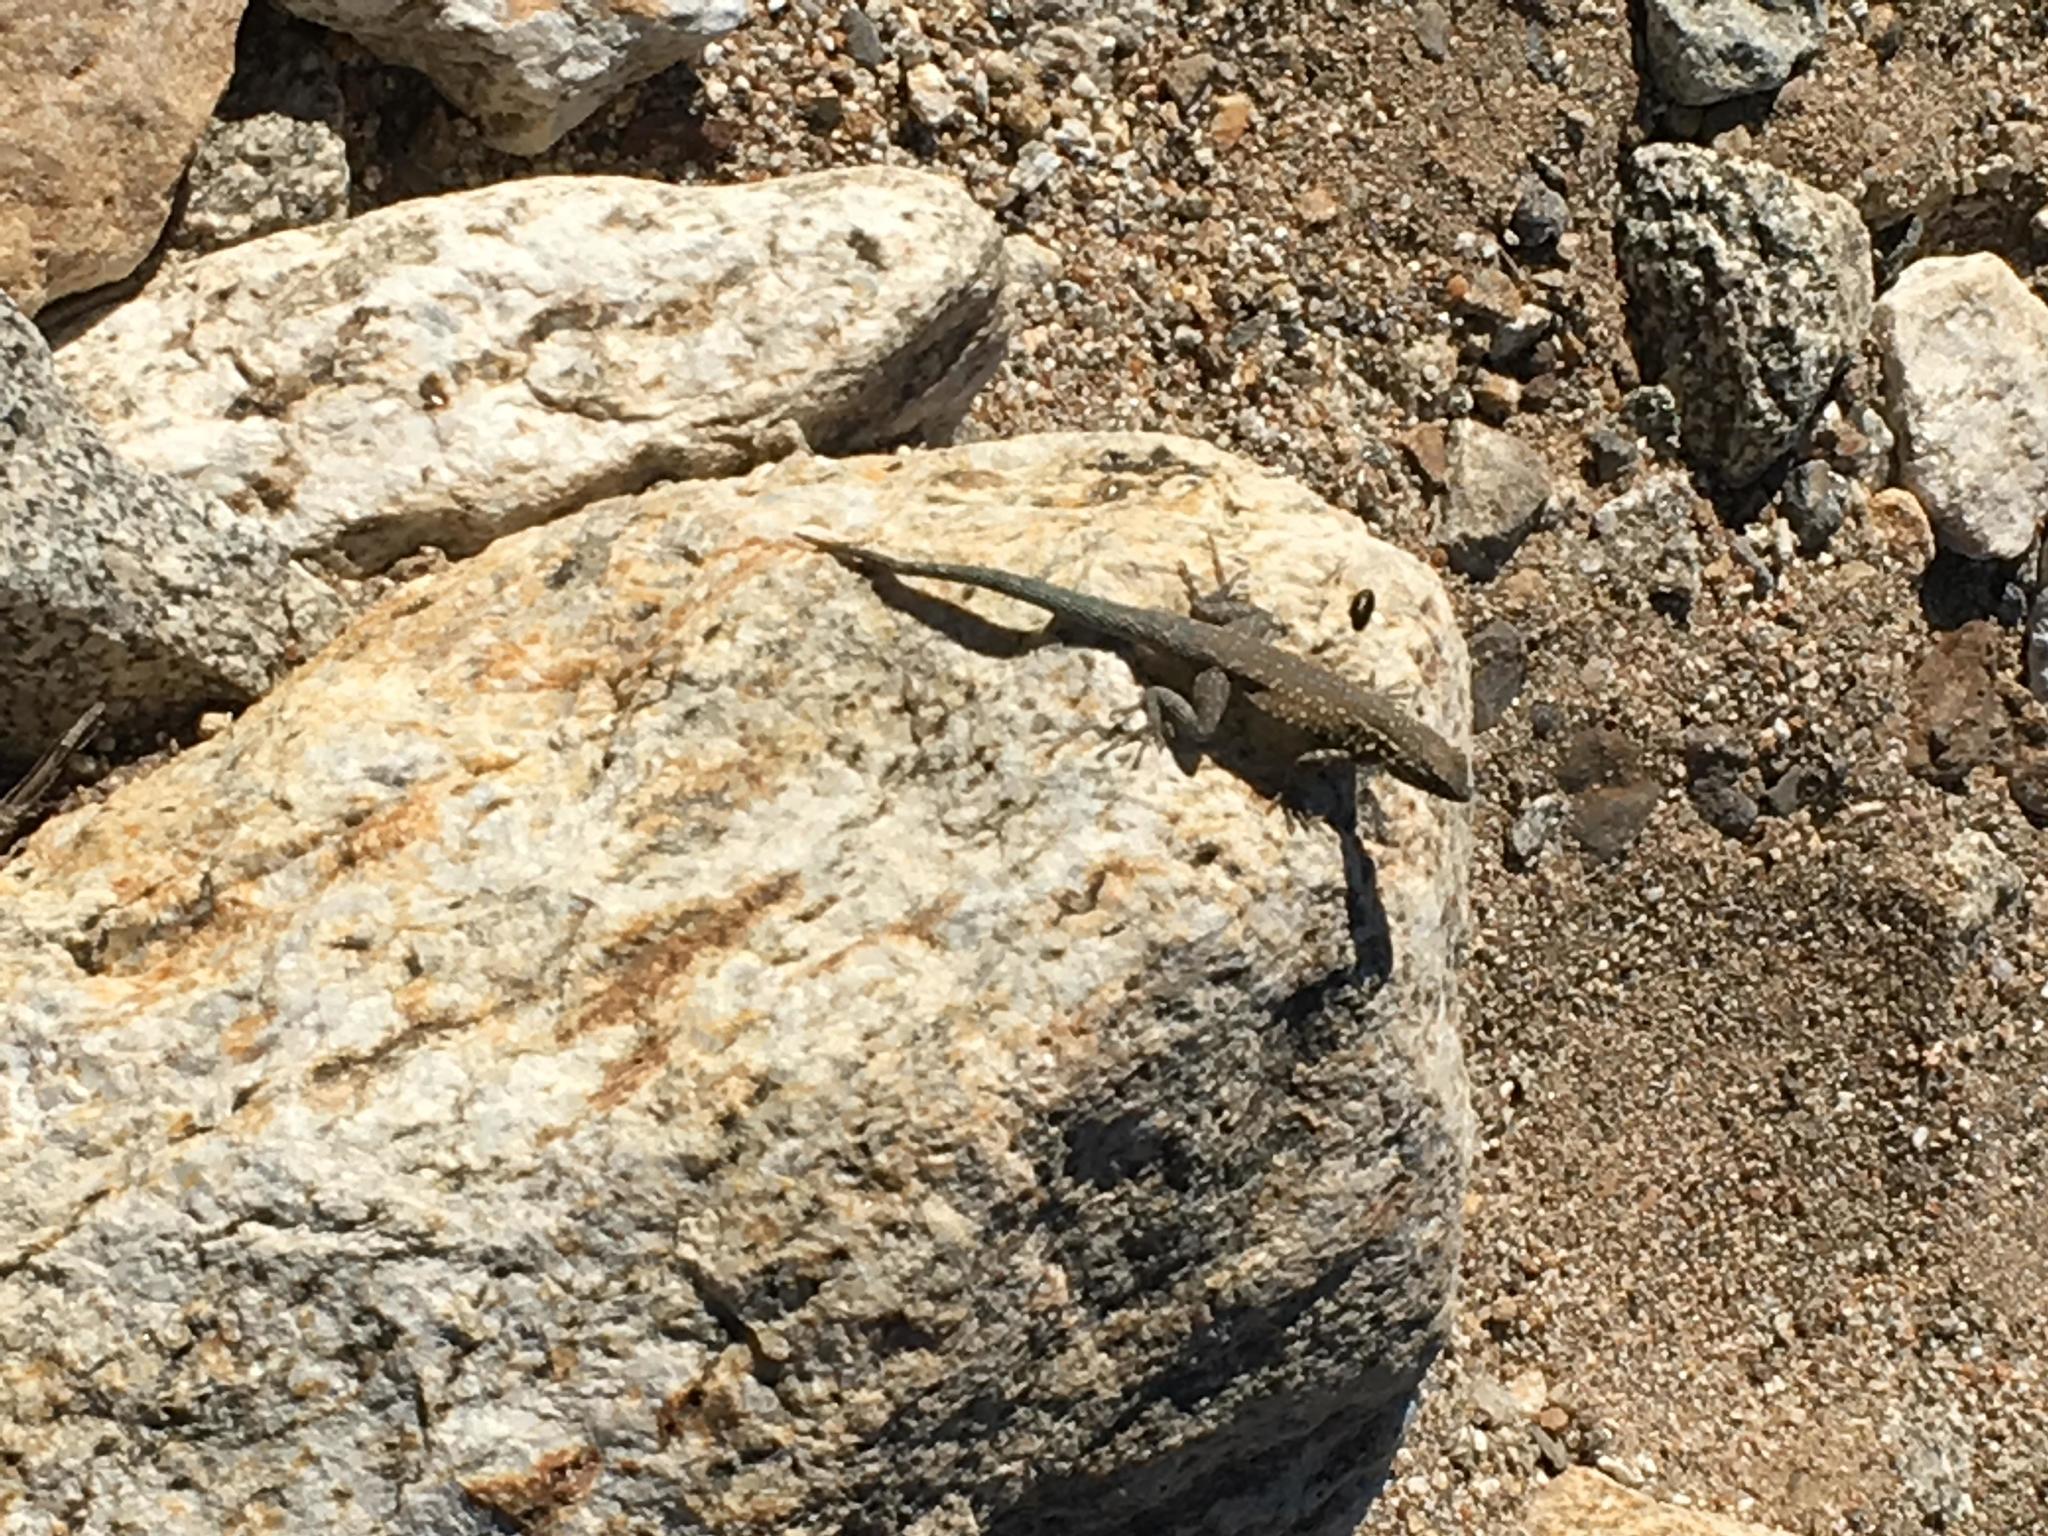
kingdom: Animalia
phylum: Chordata
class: Squamata
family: Phrynosomatidae
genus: Uta
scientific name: Uta stansburiana
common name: Side-blotched lizard
